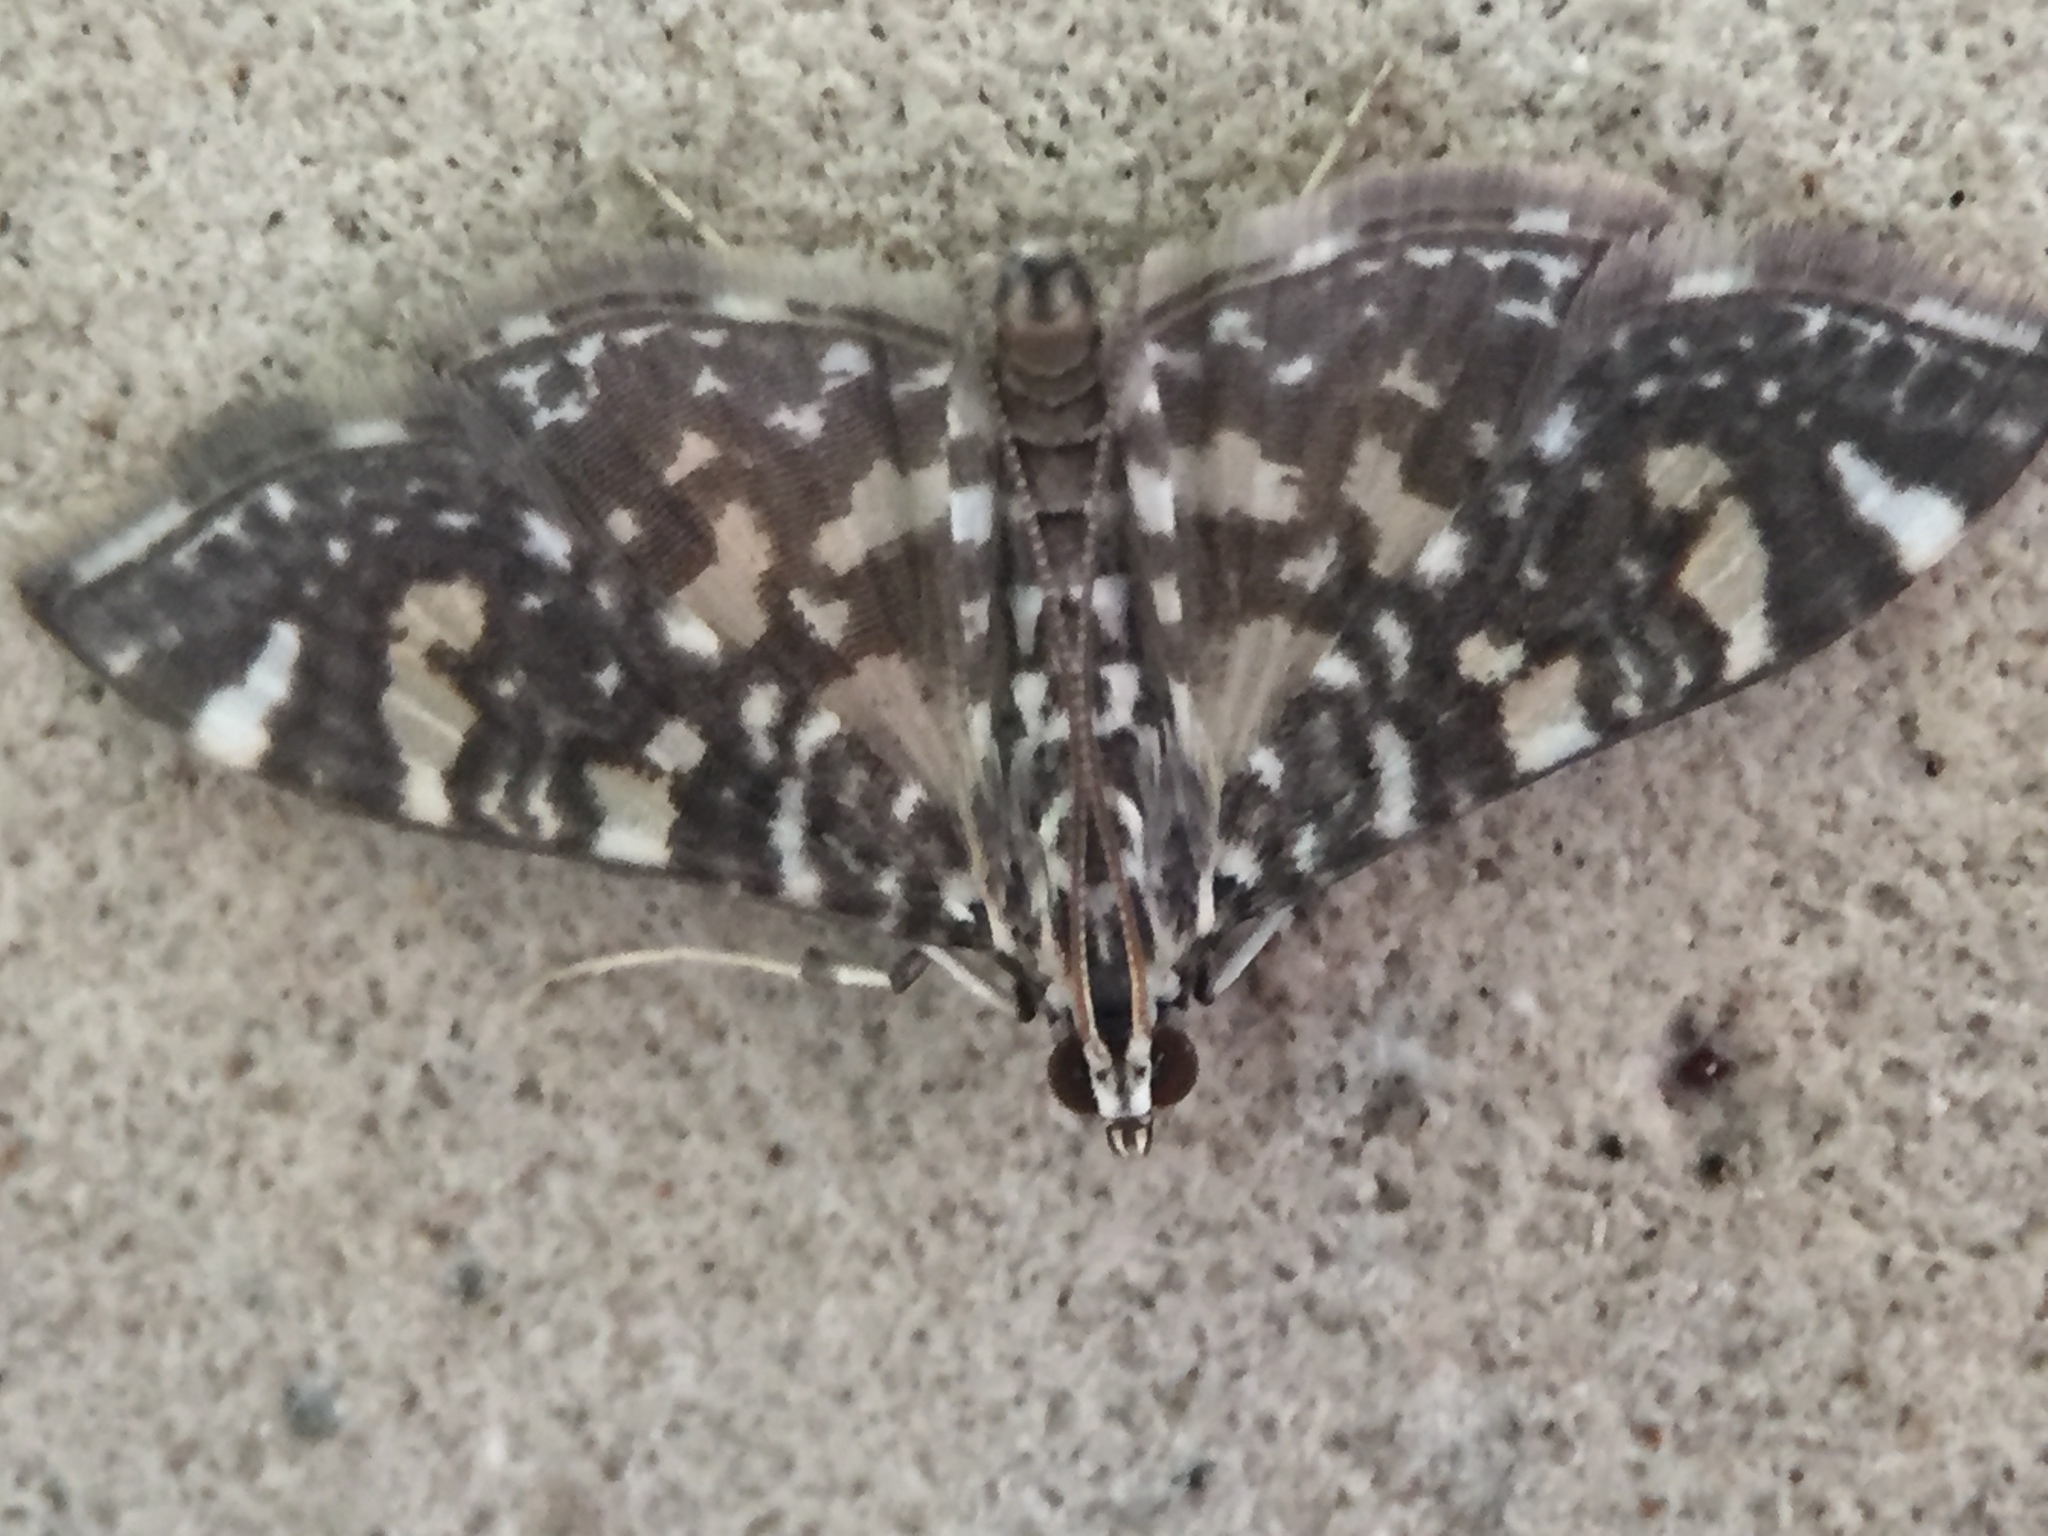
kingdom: Animalia
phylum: Arthropoda
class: Insecta
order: Lepidoptera
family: Crambidae
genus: Glyphodes
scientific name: Glyphodes onychinalis
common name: Swan plant moth
